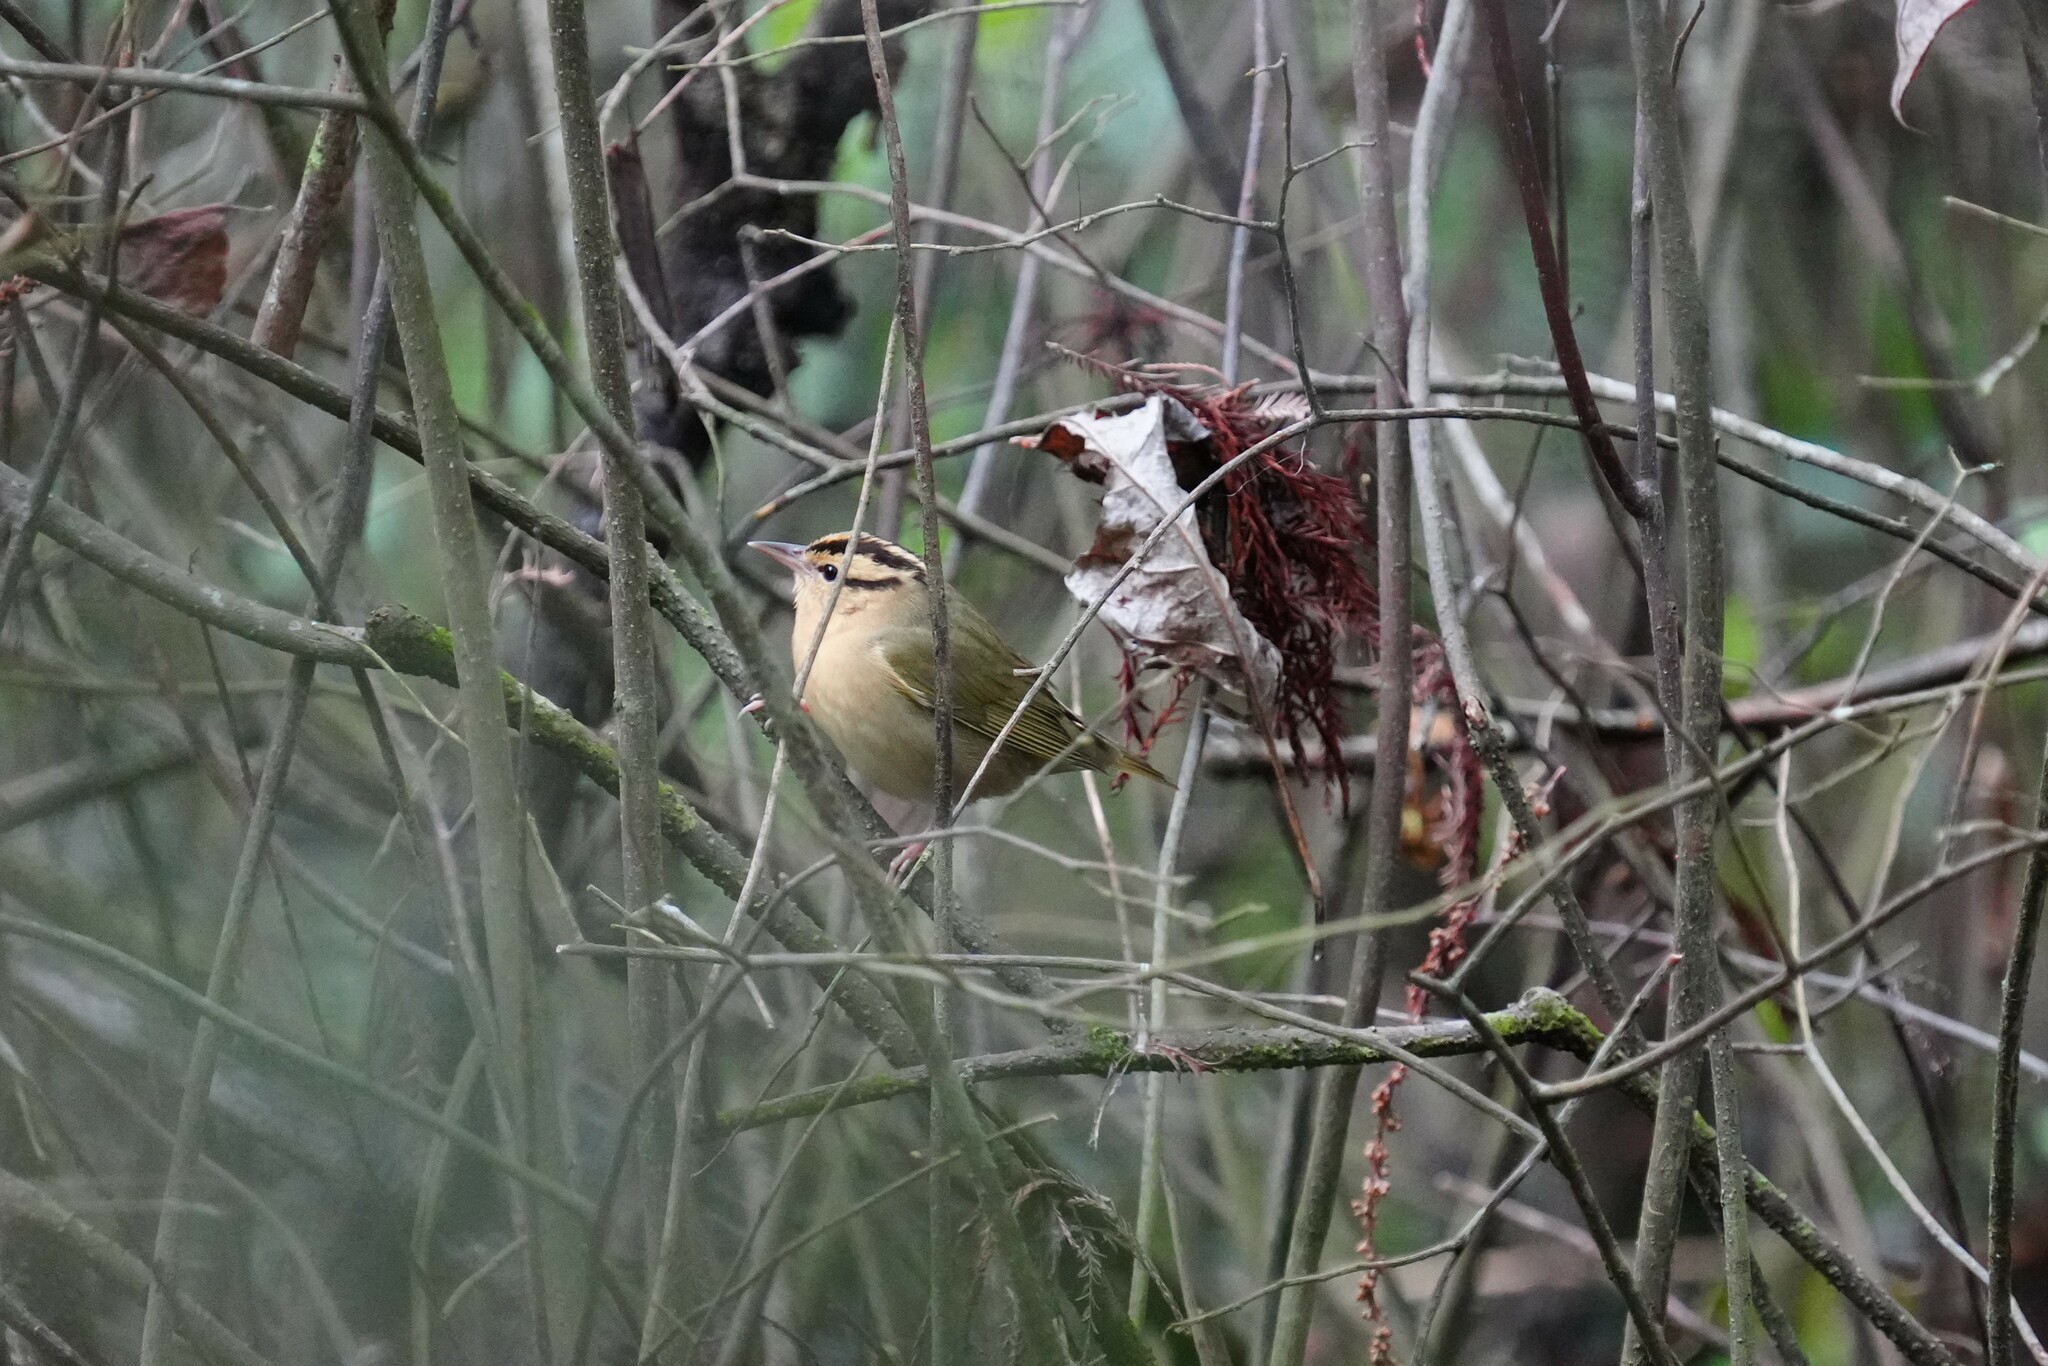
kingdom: Animalia
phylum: Chordata
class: Aves
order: Passeriformes
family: Parulidae
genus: Helmitheros
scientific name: Helmitheros vermivorum
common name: Worm-eating warbler
